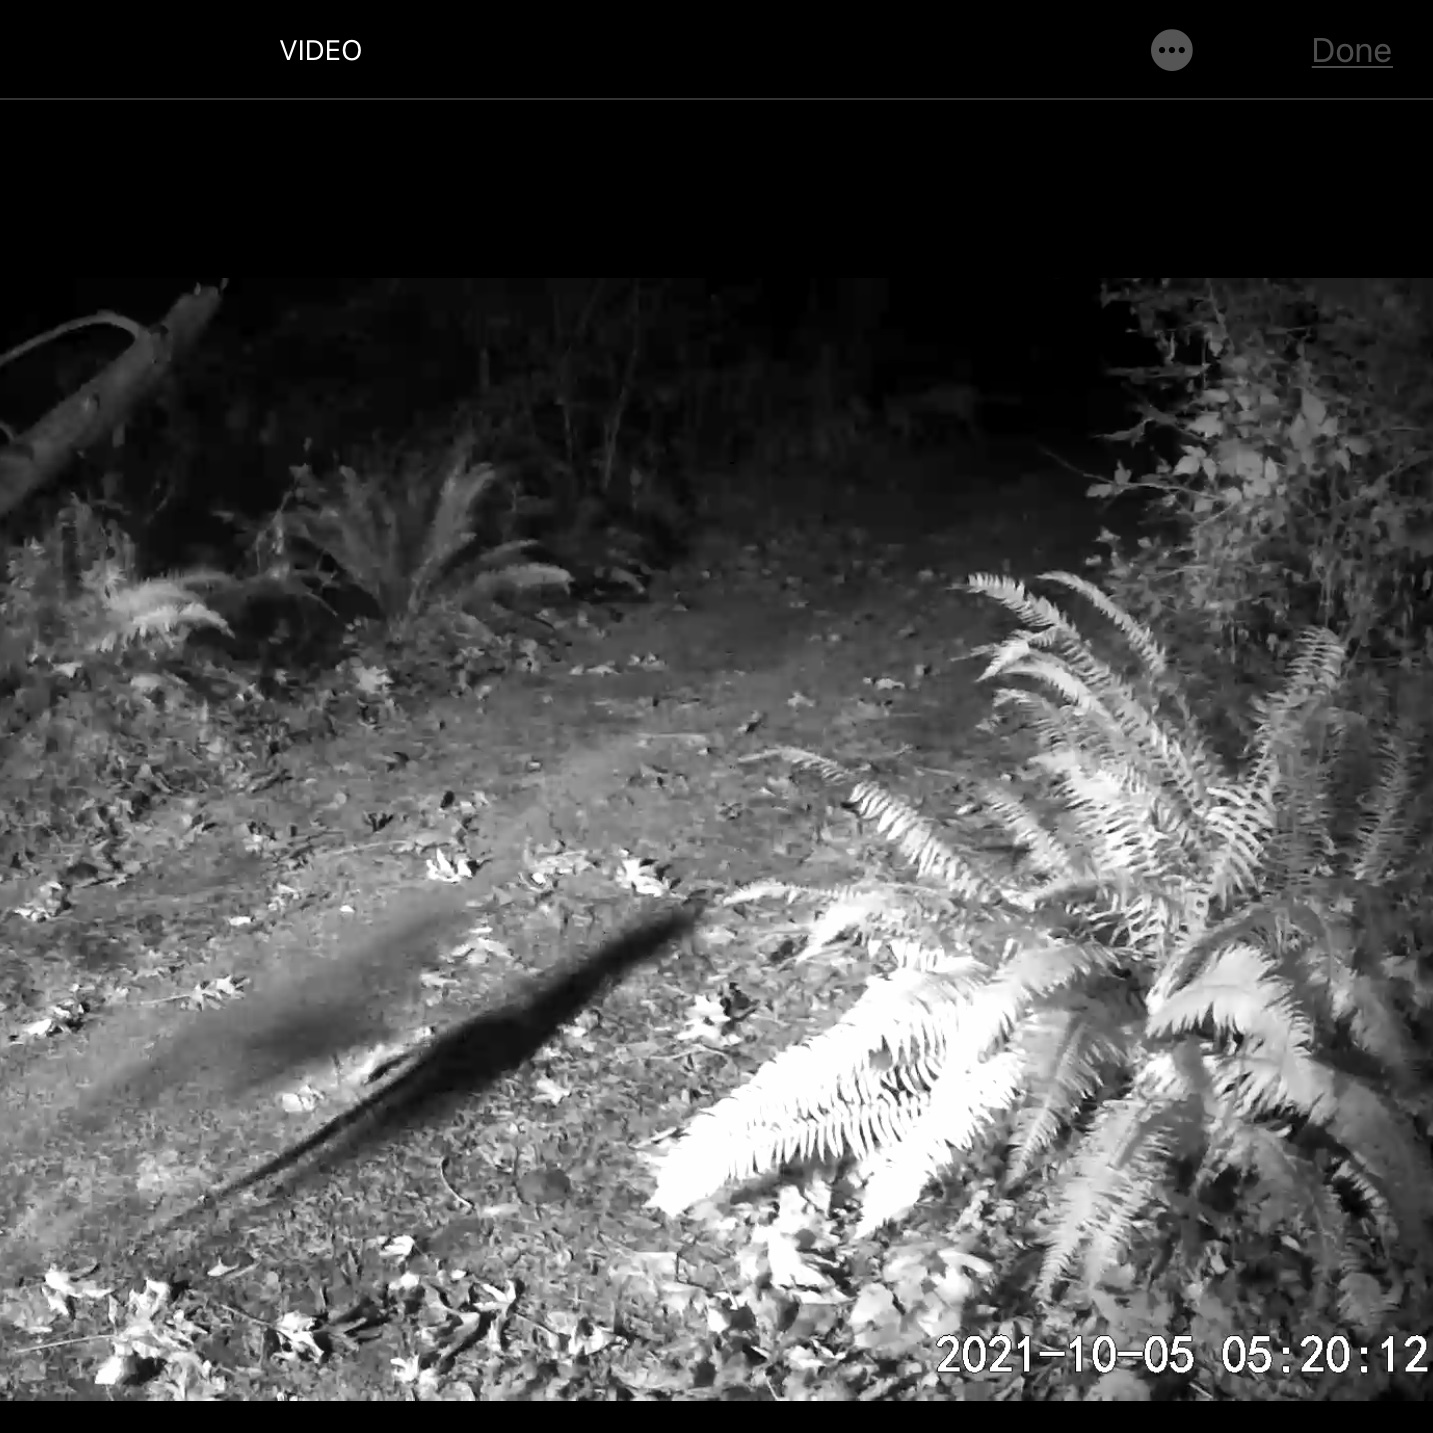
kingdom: Animalia
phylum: Chordata
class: Mammalia
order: Carnivora
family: Canidae
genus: Canis
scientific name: Canis latrans
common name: Coyote
